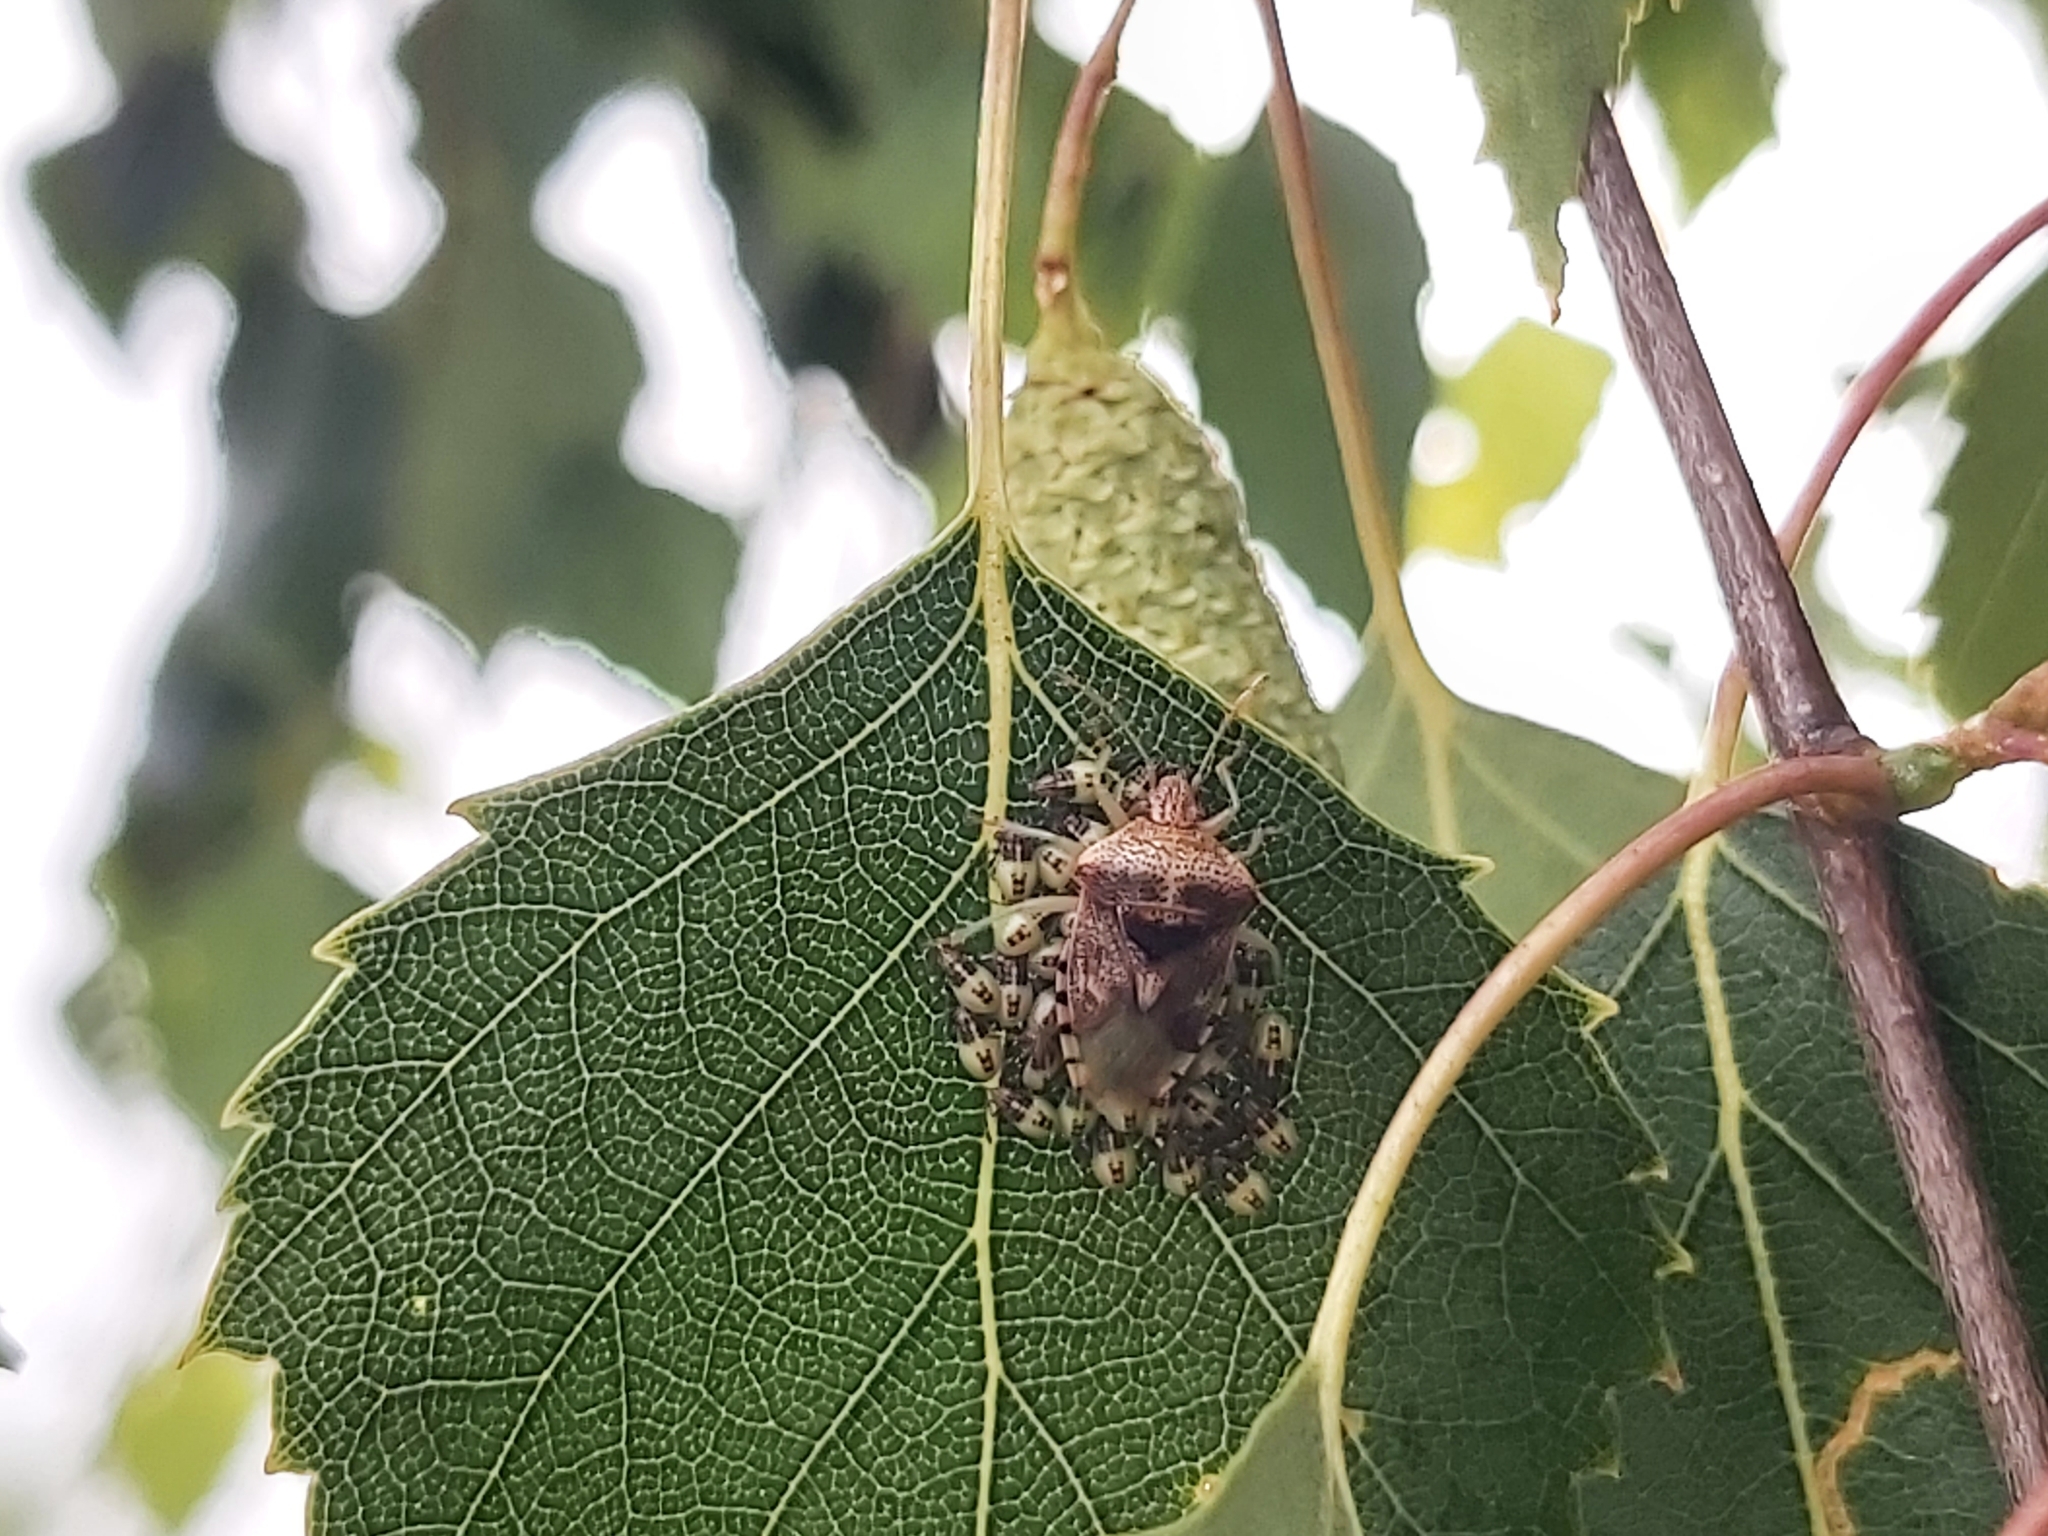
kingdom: Animalia
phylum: Arthropoda
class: Insecta
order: Hemiptera
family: Acanthosomatidae
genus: Elasmucha
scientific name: Elasmucha grisea
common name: Parent bug
